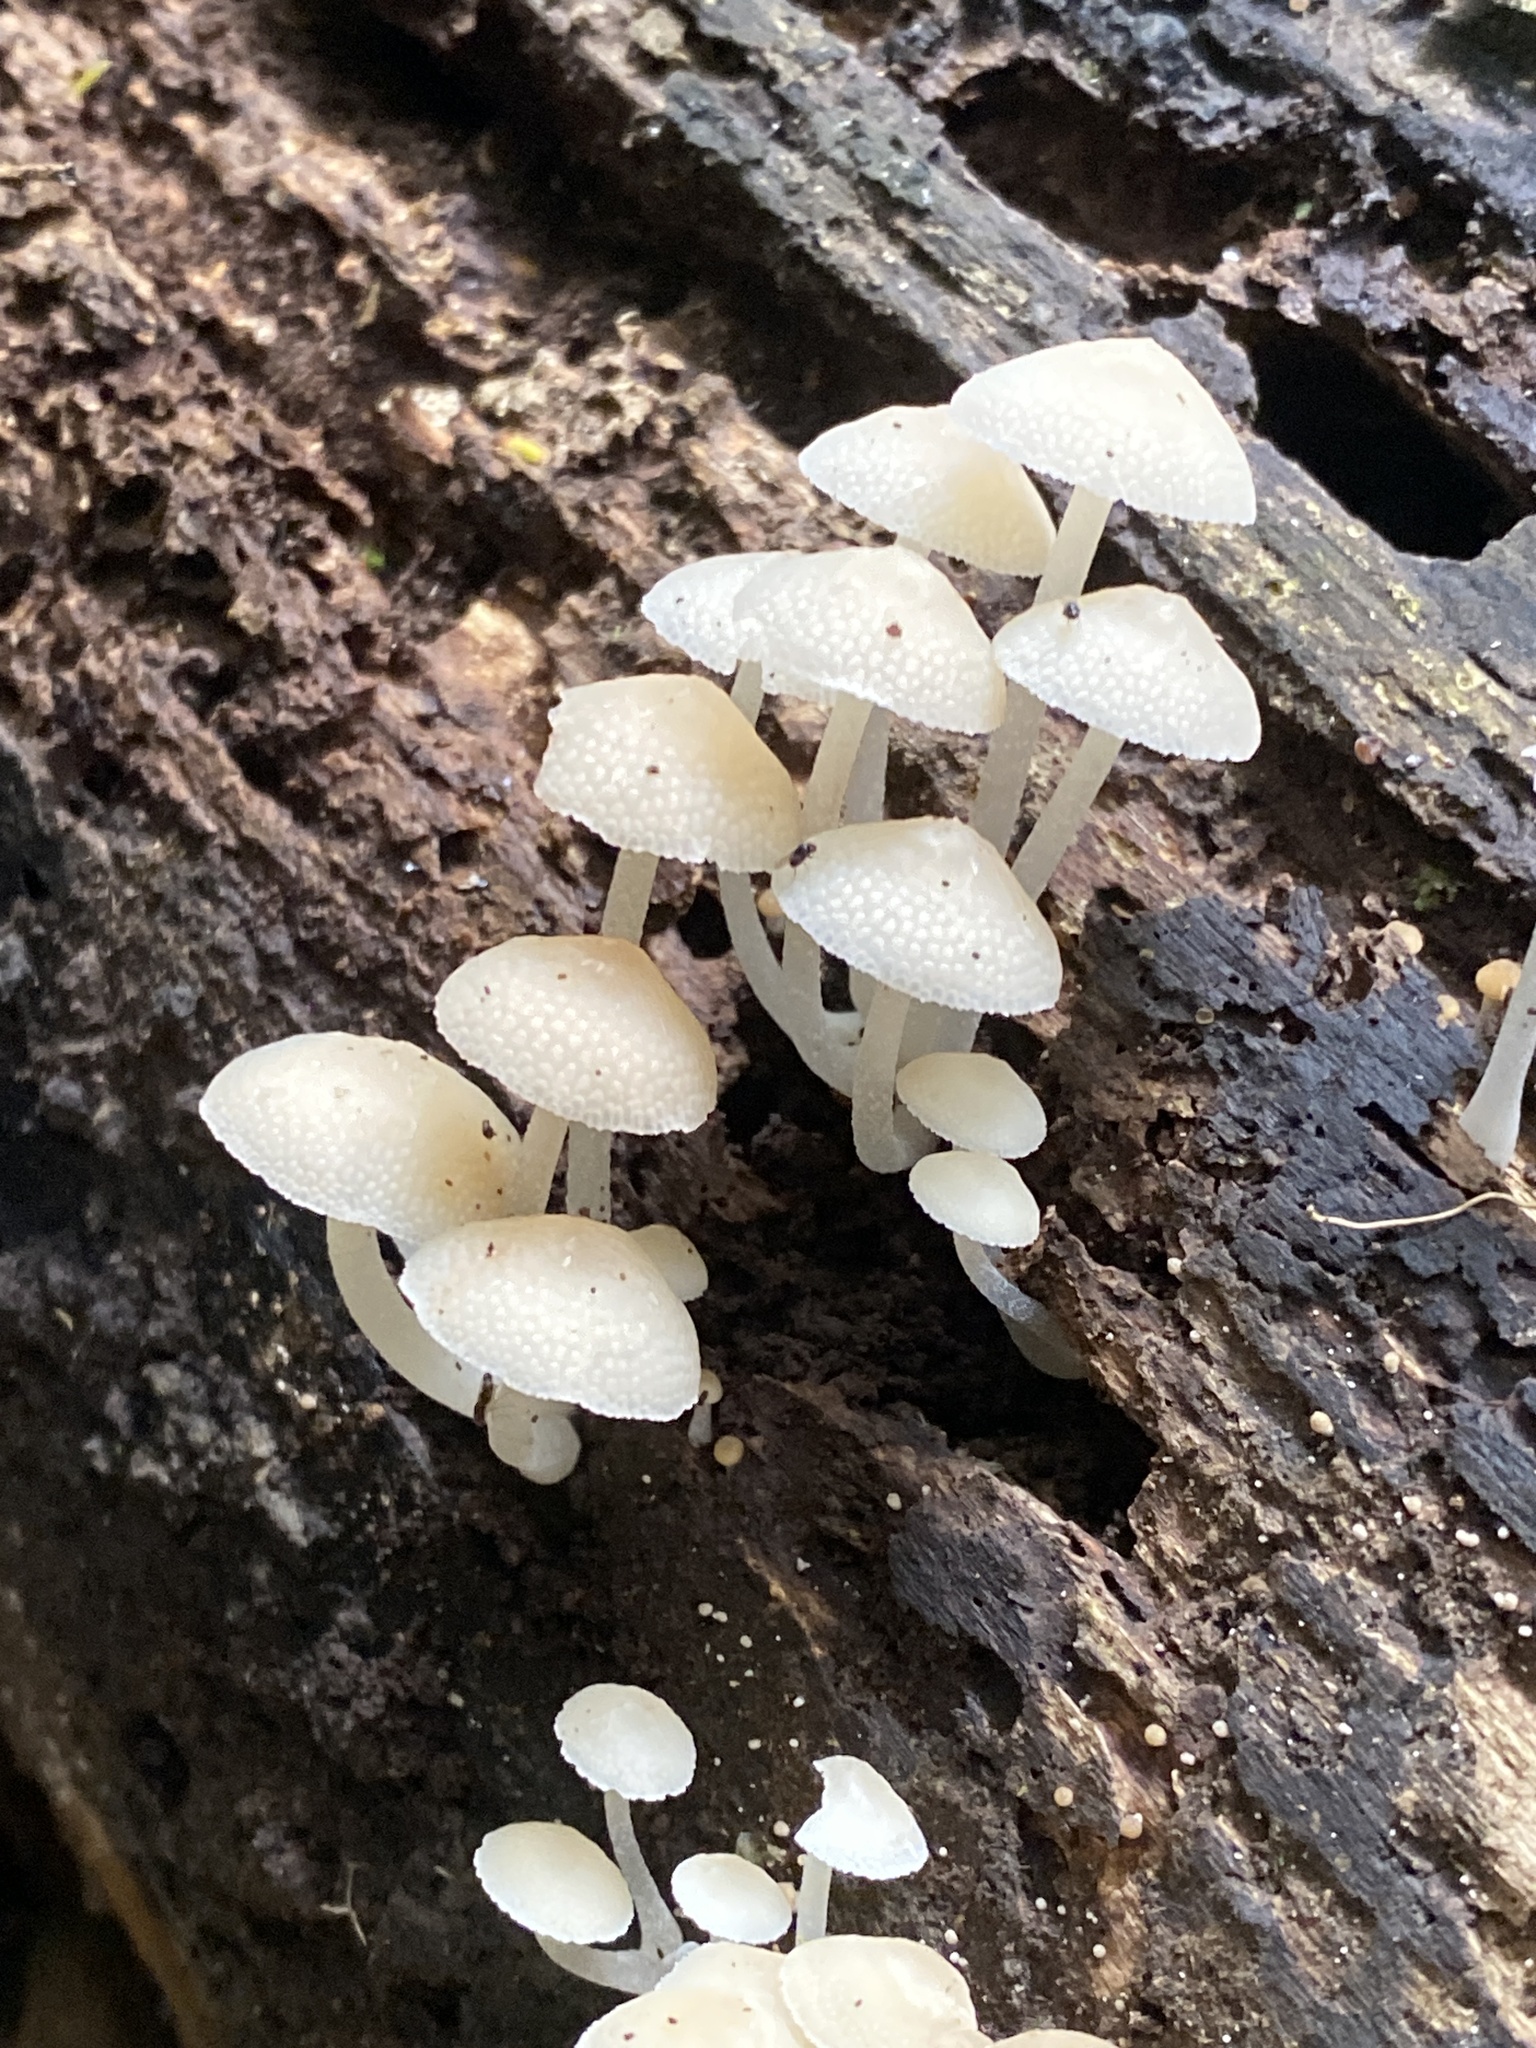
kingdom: Fungi
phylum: Basidiomycota
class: Agaricomycetes
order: Agaricales
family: Mycenaceae
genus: Filoboletus
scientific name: Filoboletus manipularis
